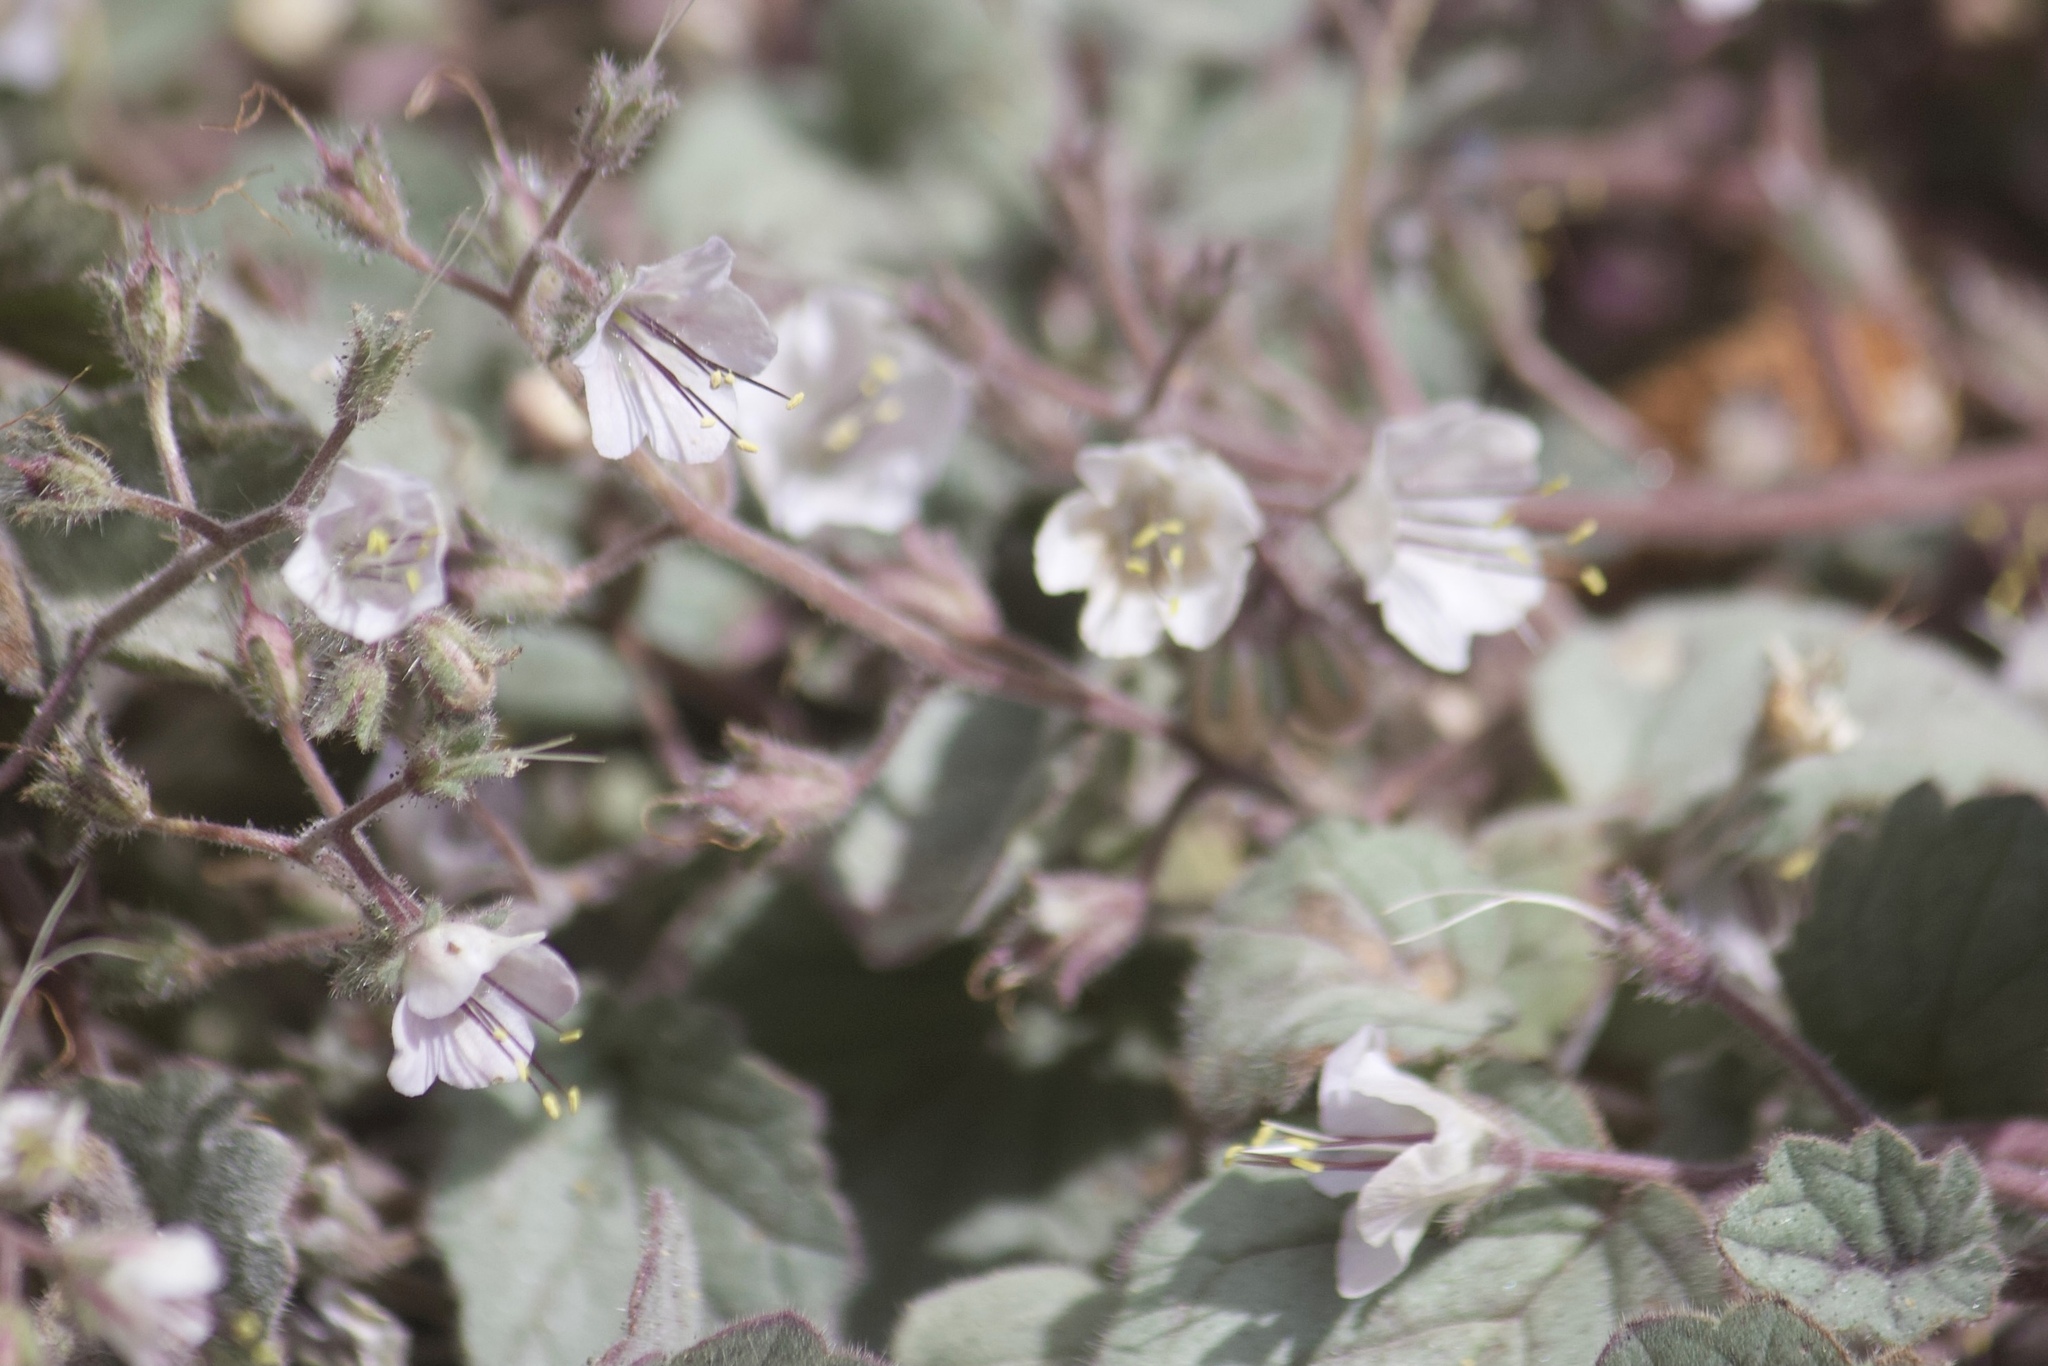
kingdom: Plantae
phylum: Tracheophyta
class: Magnoliopsida
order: Boraginales
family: Hydrophyllaceae
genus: Phacelia
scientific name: Phacelia longipes
